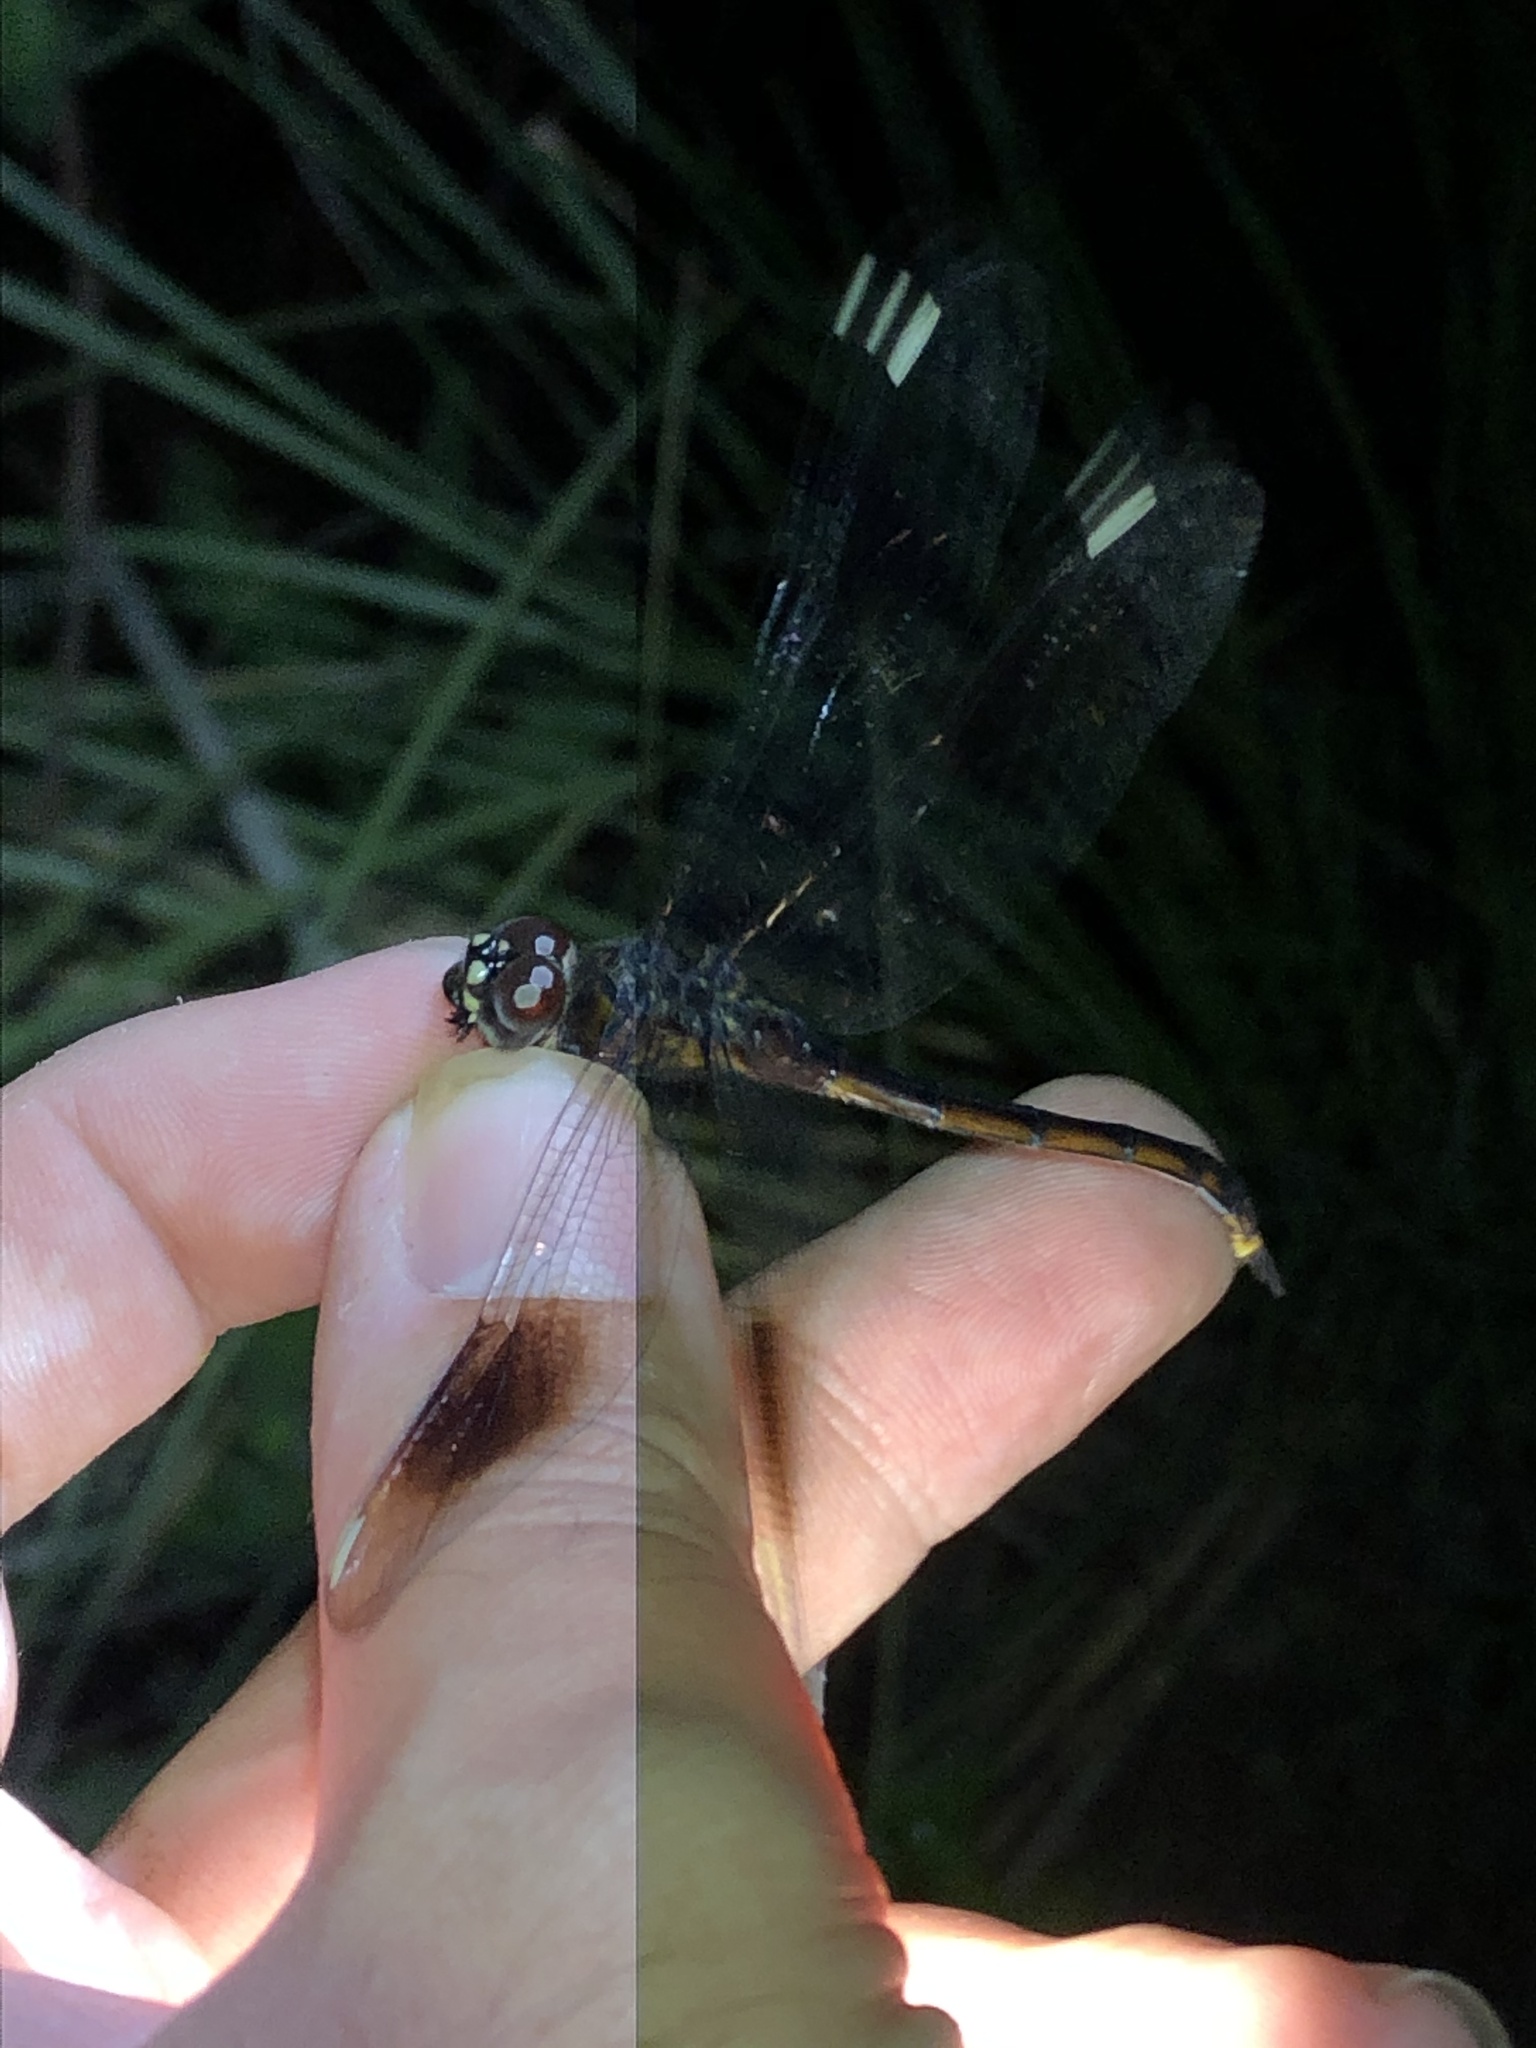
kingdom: Animalia
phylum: Arthropoda
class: Insecta
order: Odonata
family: Libellulidae
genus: Brachymesia
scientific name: Brachymesia gravida
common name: Four-spotted pennant
